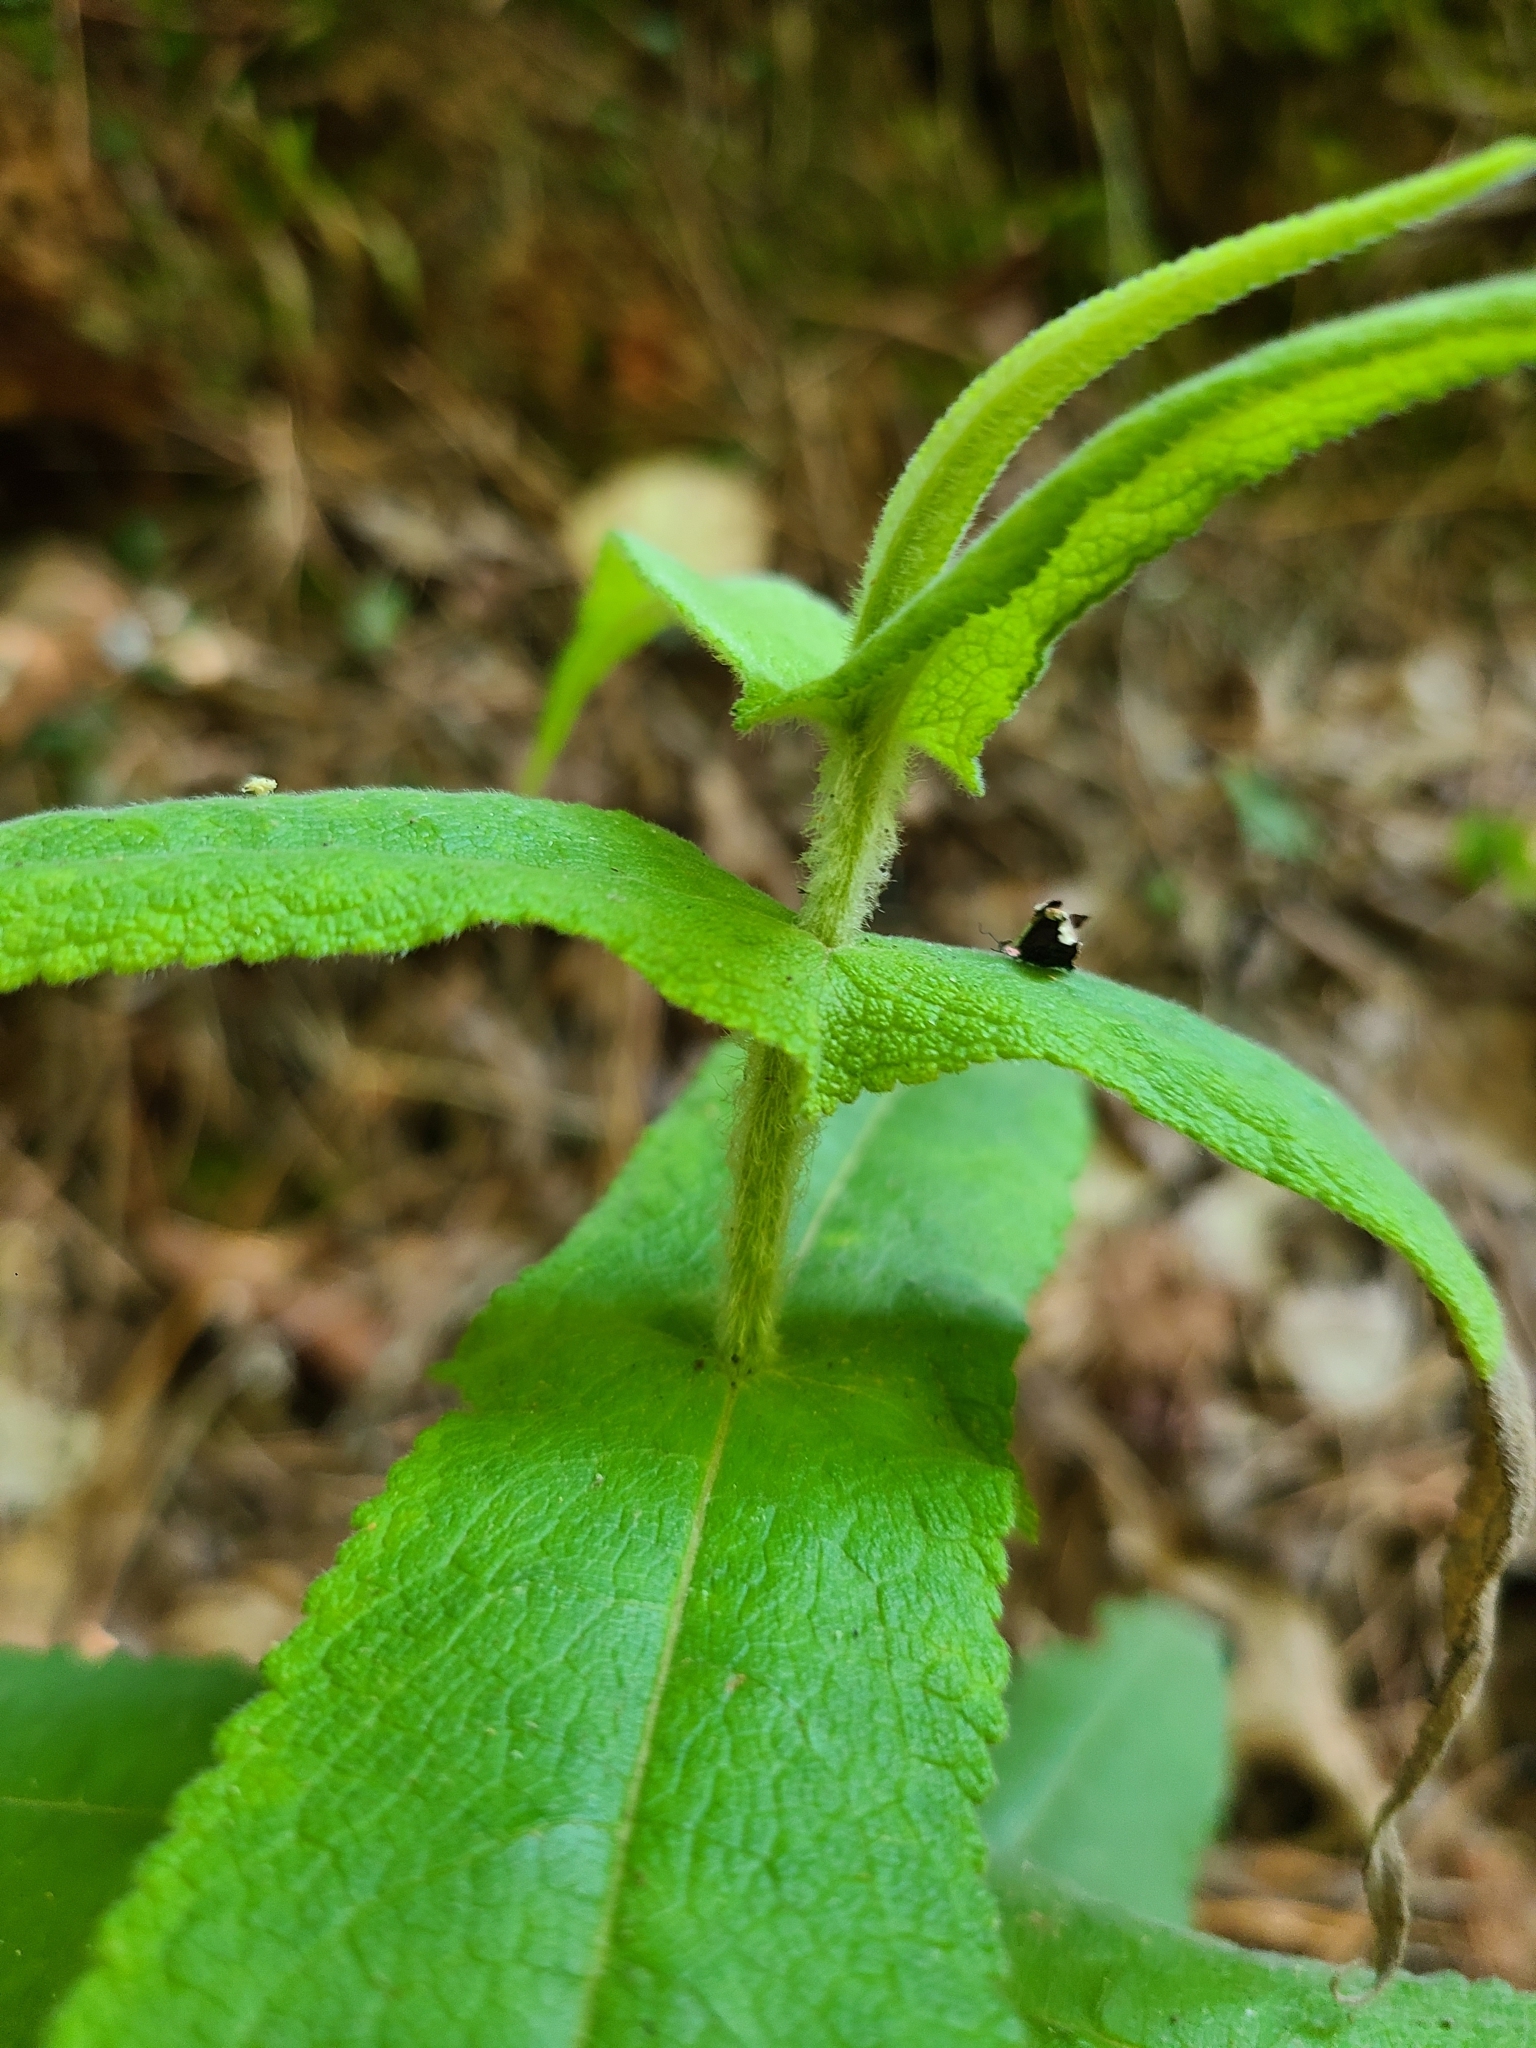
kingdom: Plantae
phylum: Tracheophyta
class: Magnoliopsida
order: Asterales
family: Asteraceae
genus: Eupatorium
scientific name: Eupatorium perfoliatum
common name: Boneset
